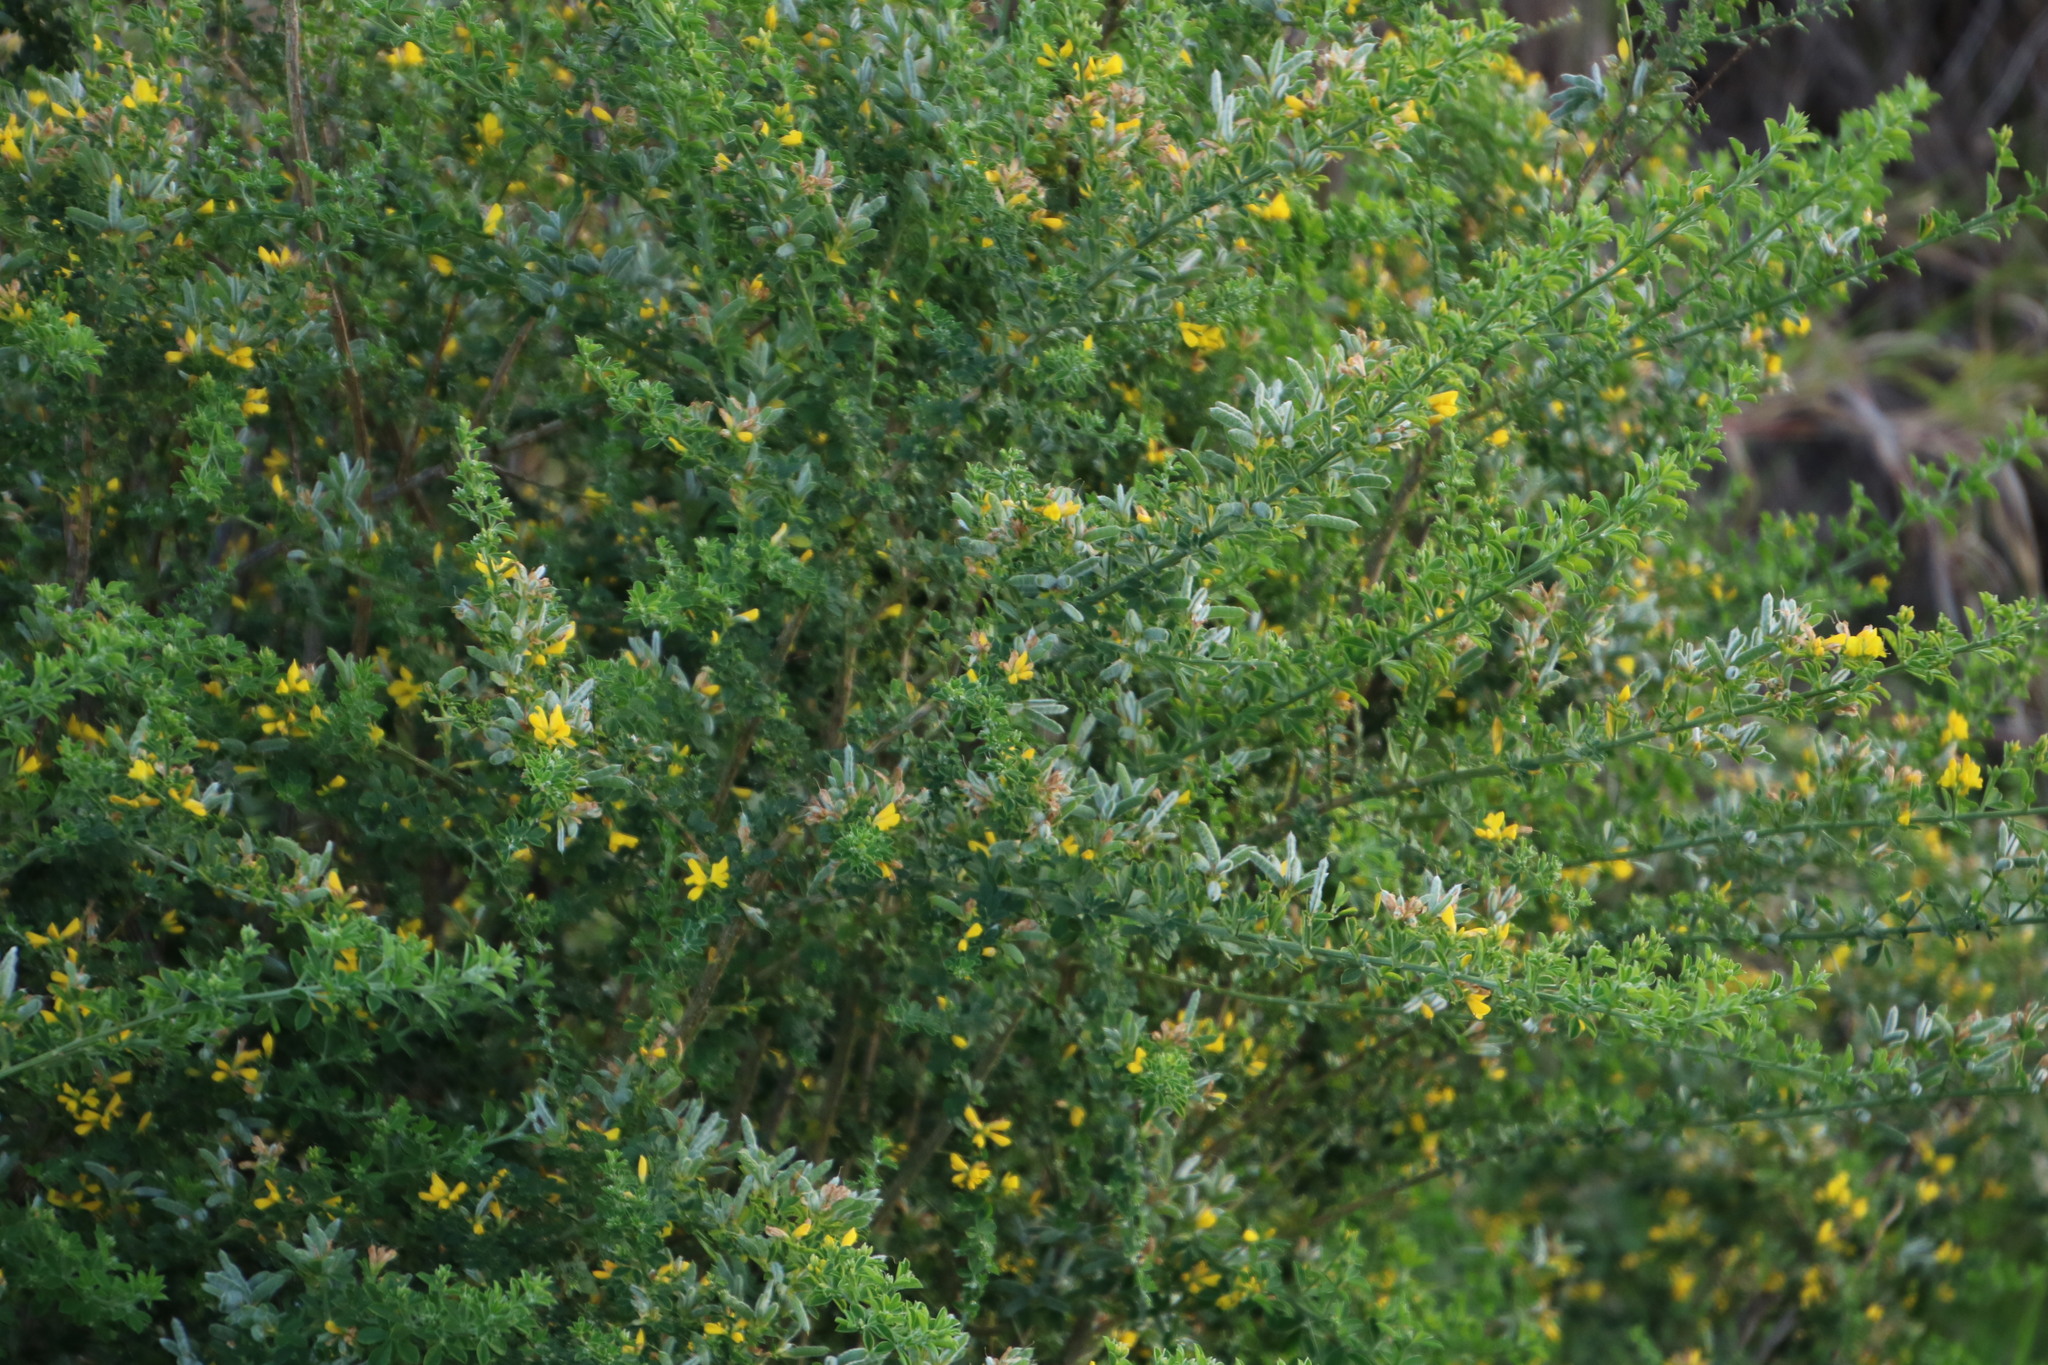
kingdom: Plantae
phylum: Tracheophyta
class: Magnoliopsida
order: Fabales
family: Fabaceae
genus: Genista
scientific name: Genista monspessulana
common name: Montpellier broom
